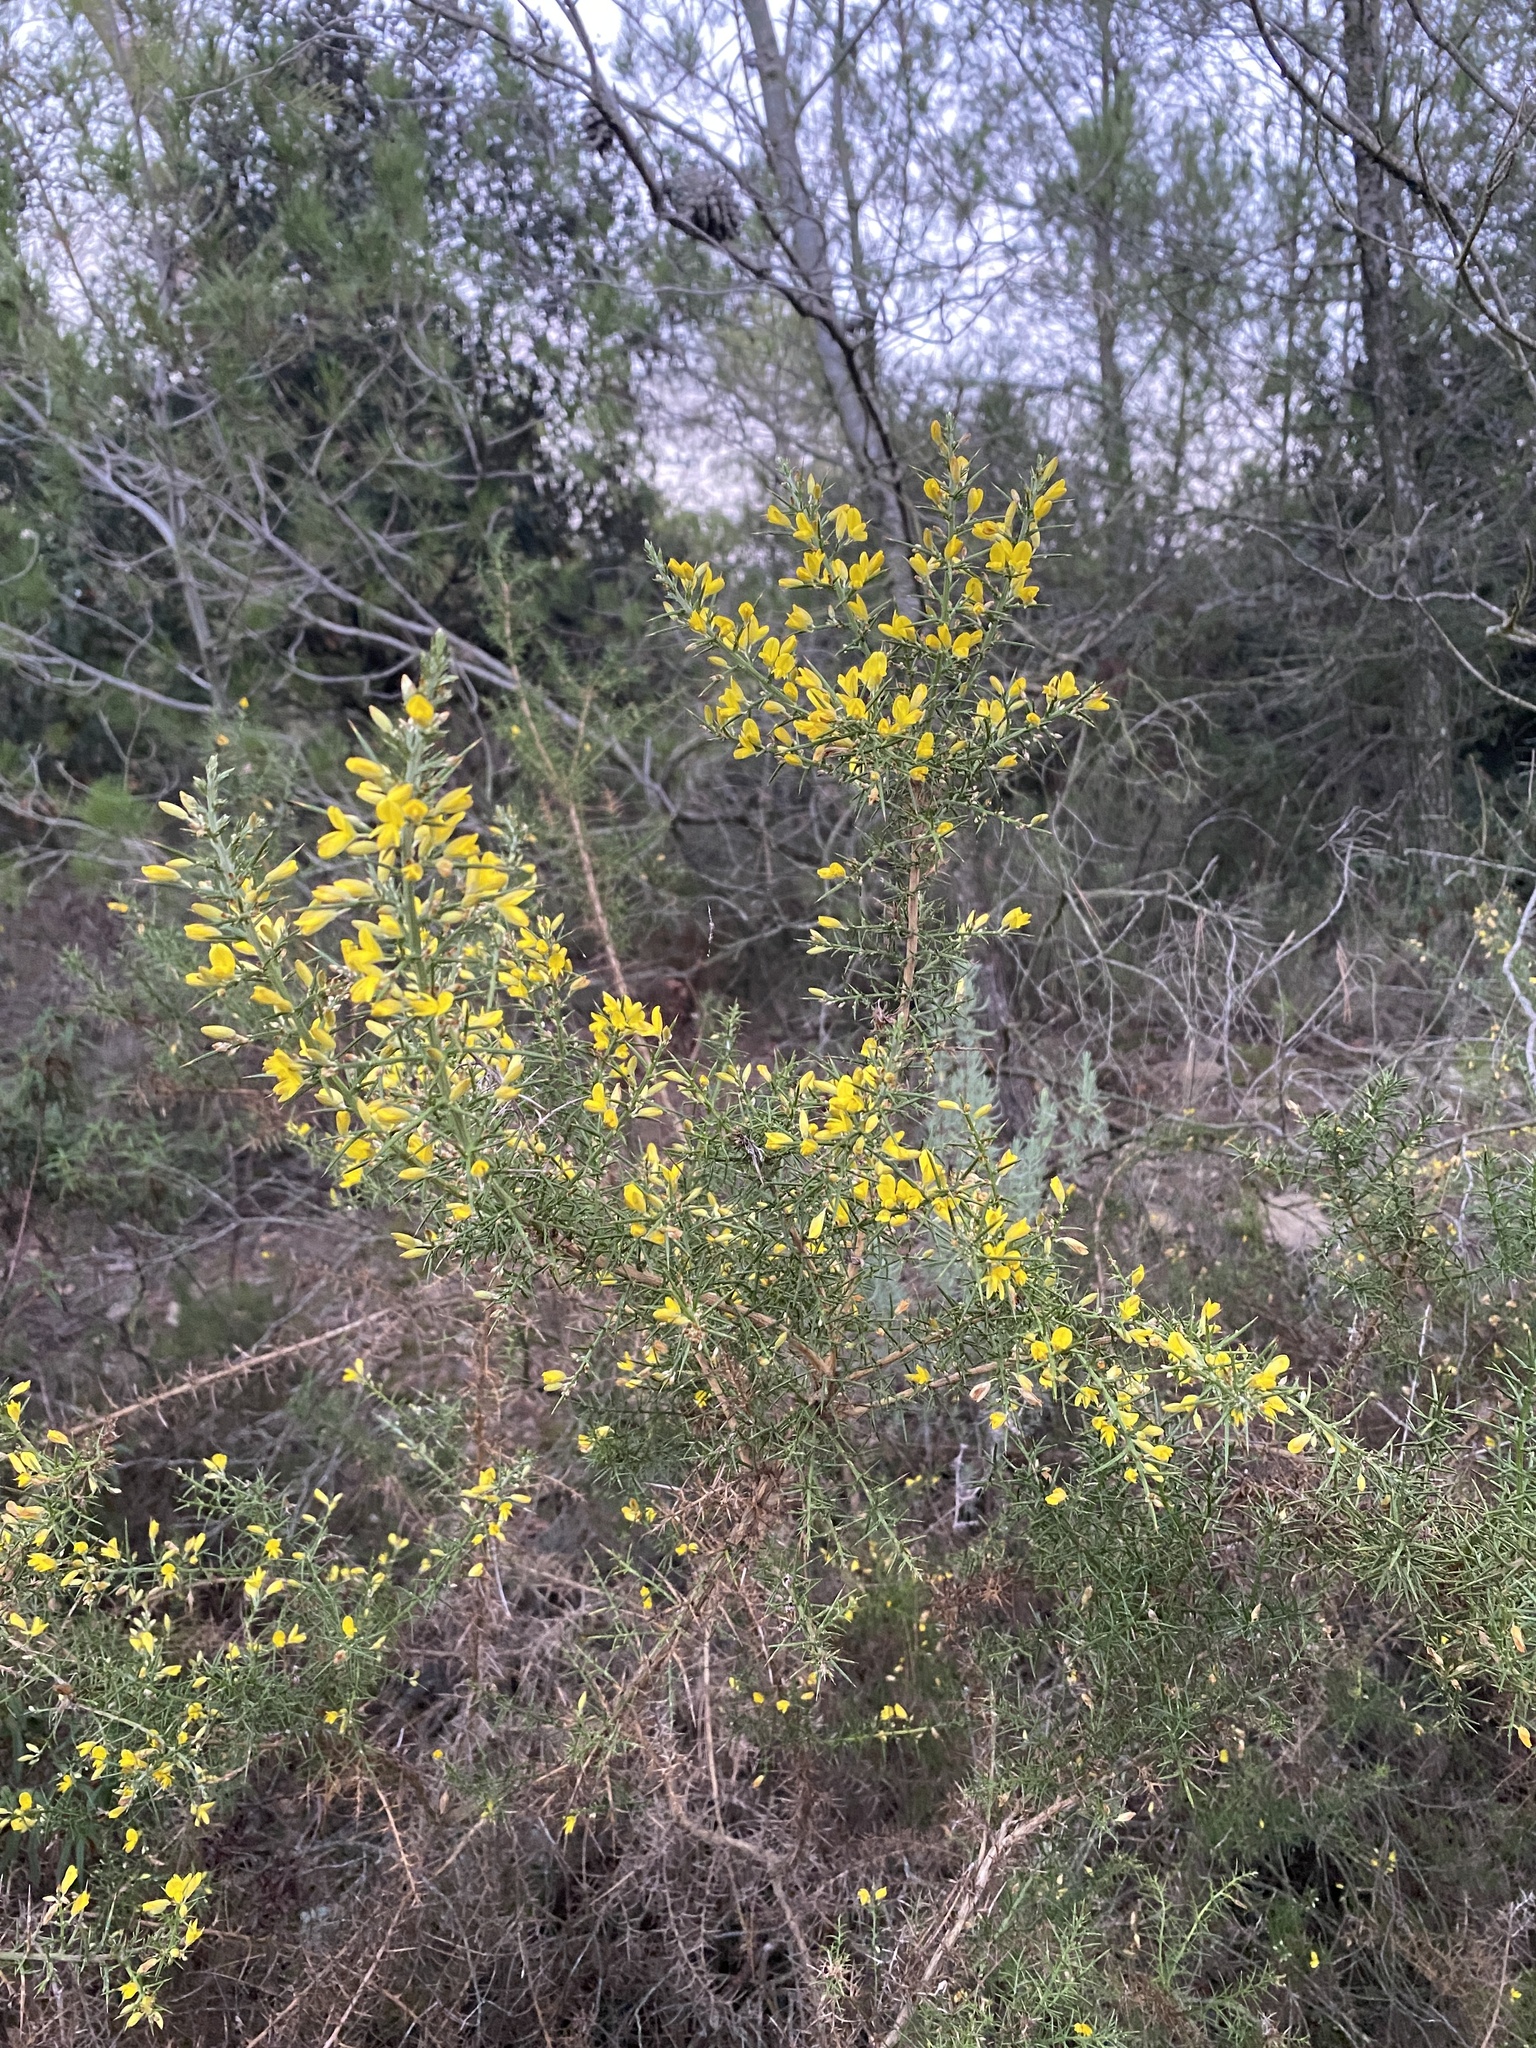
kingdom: Plantae
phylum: Tracheophyta
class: Magnoliopsida
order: Fabales
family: Fabaceae
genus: Ulex
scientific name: Ulex parviflorus
